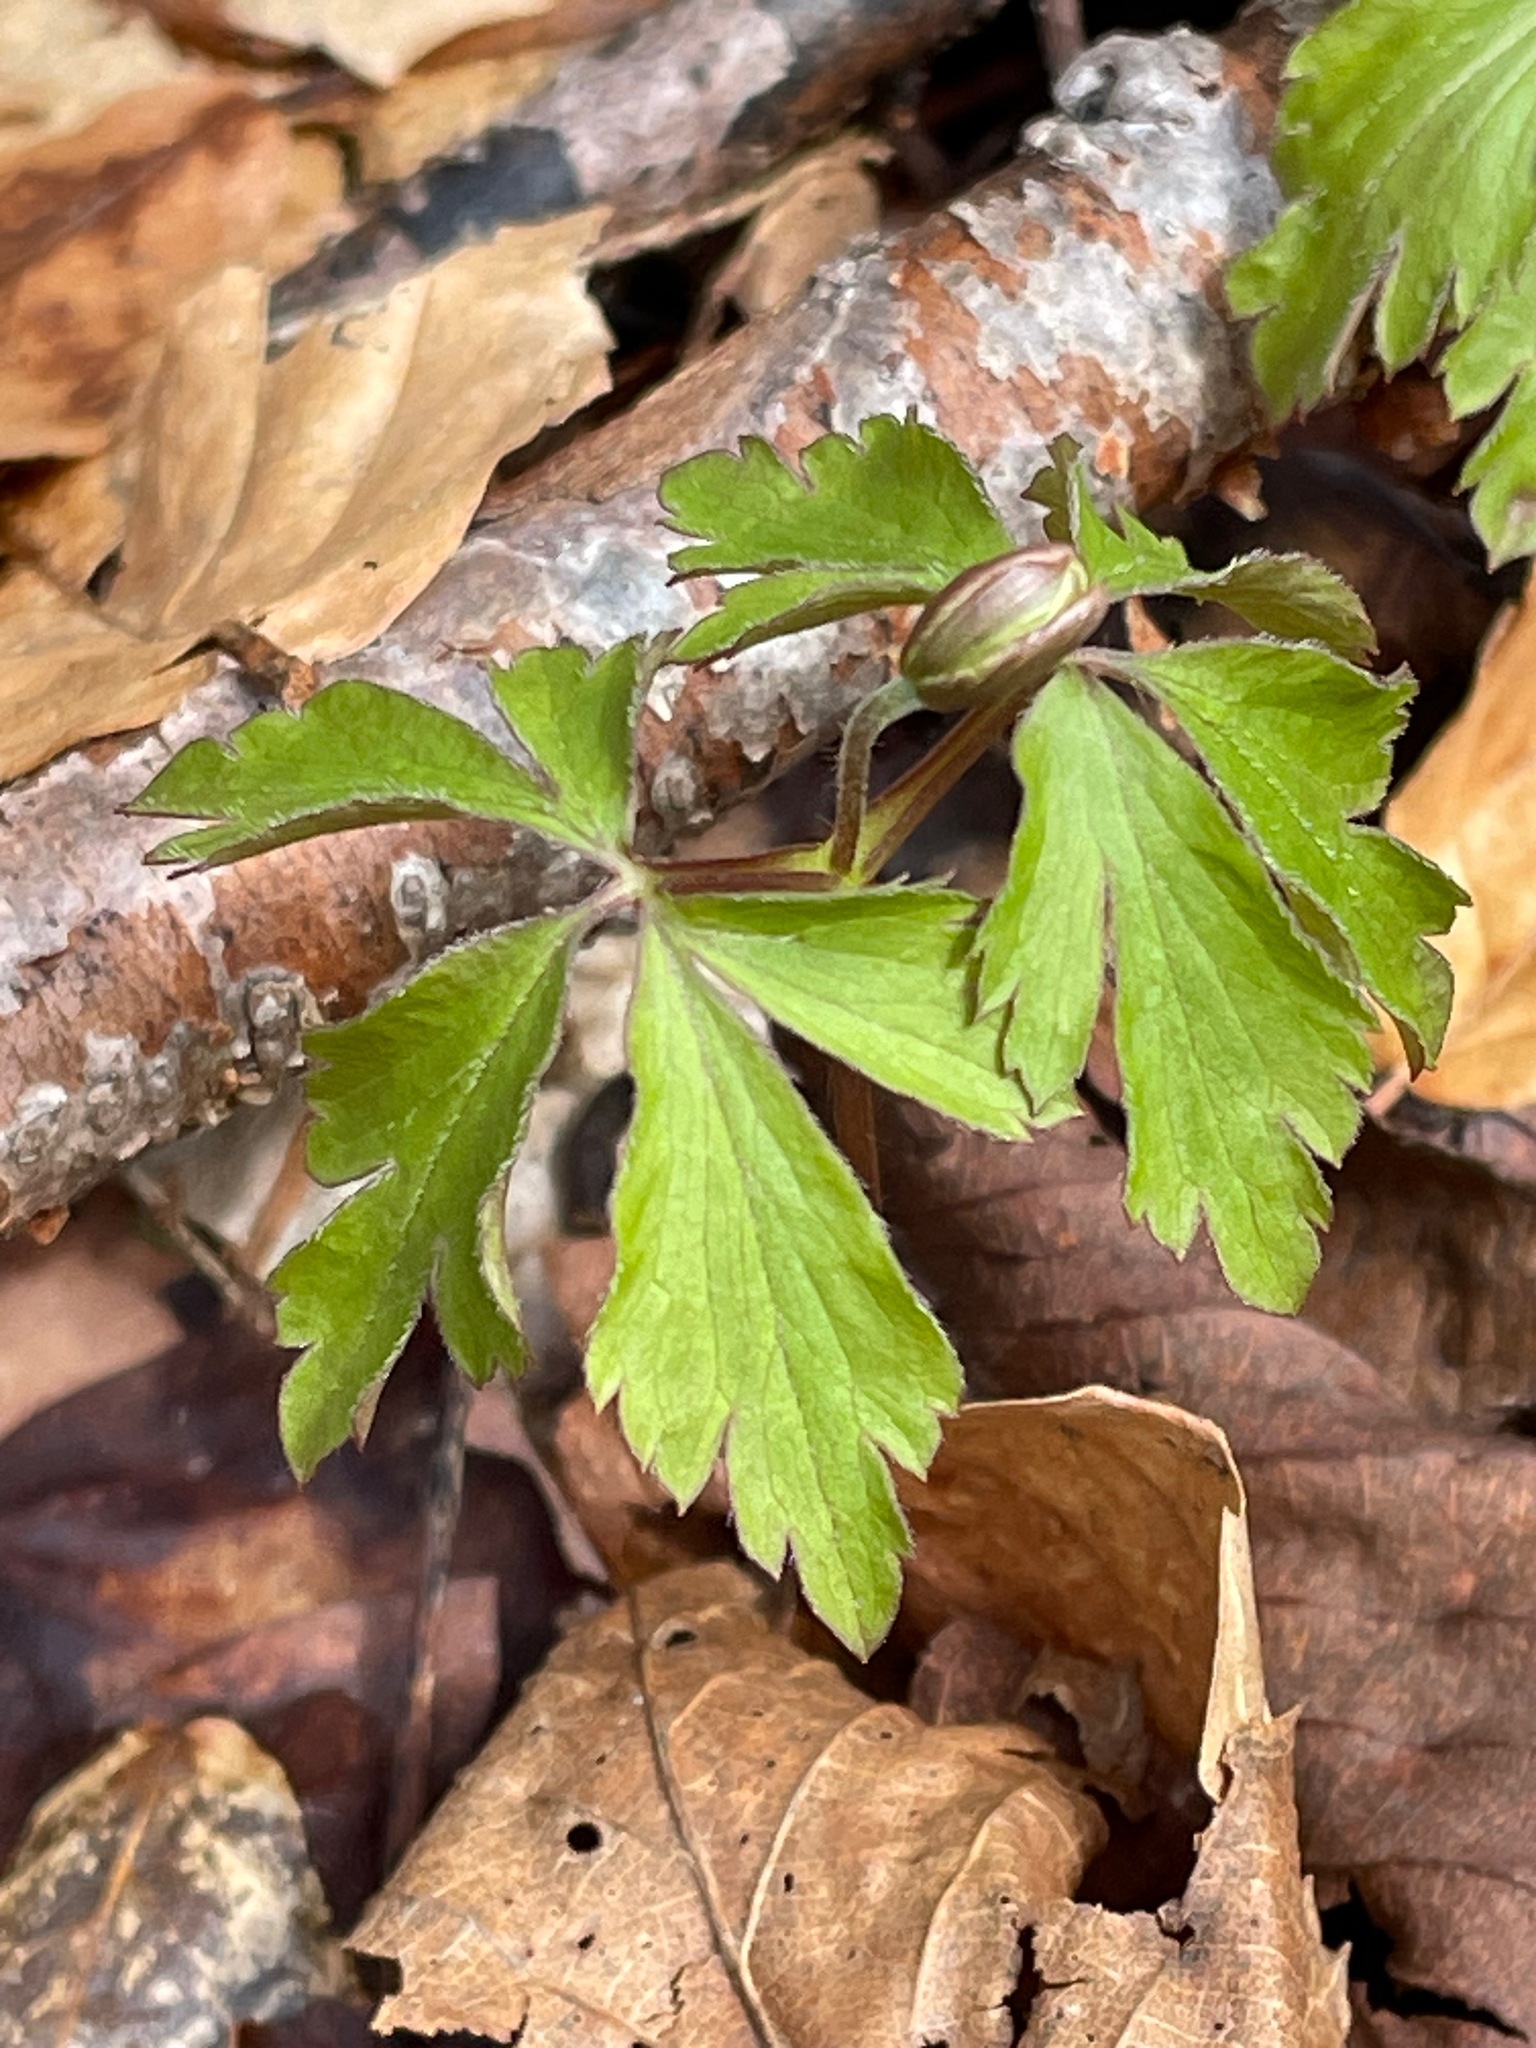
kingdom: Plantae
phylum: Tracheophyta
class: Magnoliopsida
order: Ranunculales
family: Ranunculaceae
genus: Anemone
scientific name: Anemone quinquefolia
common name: Wood anemone
